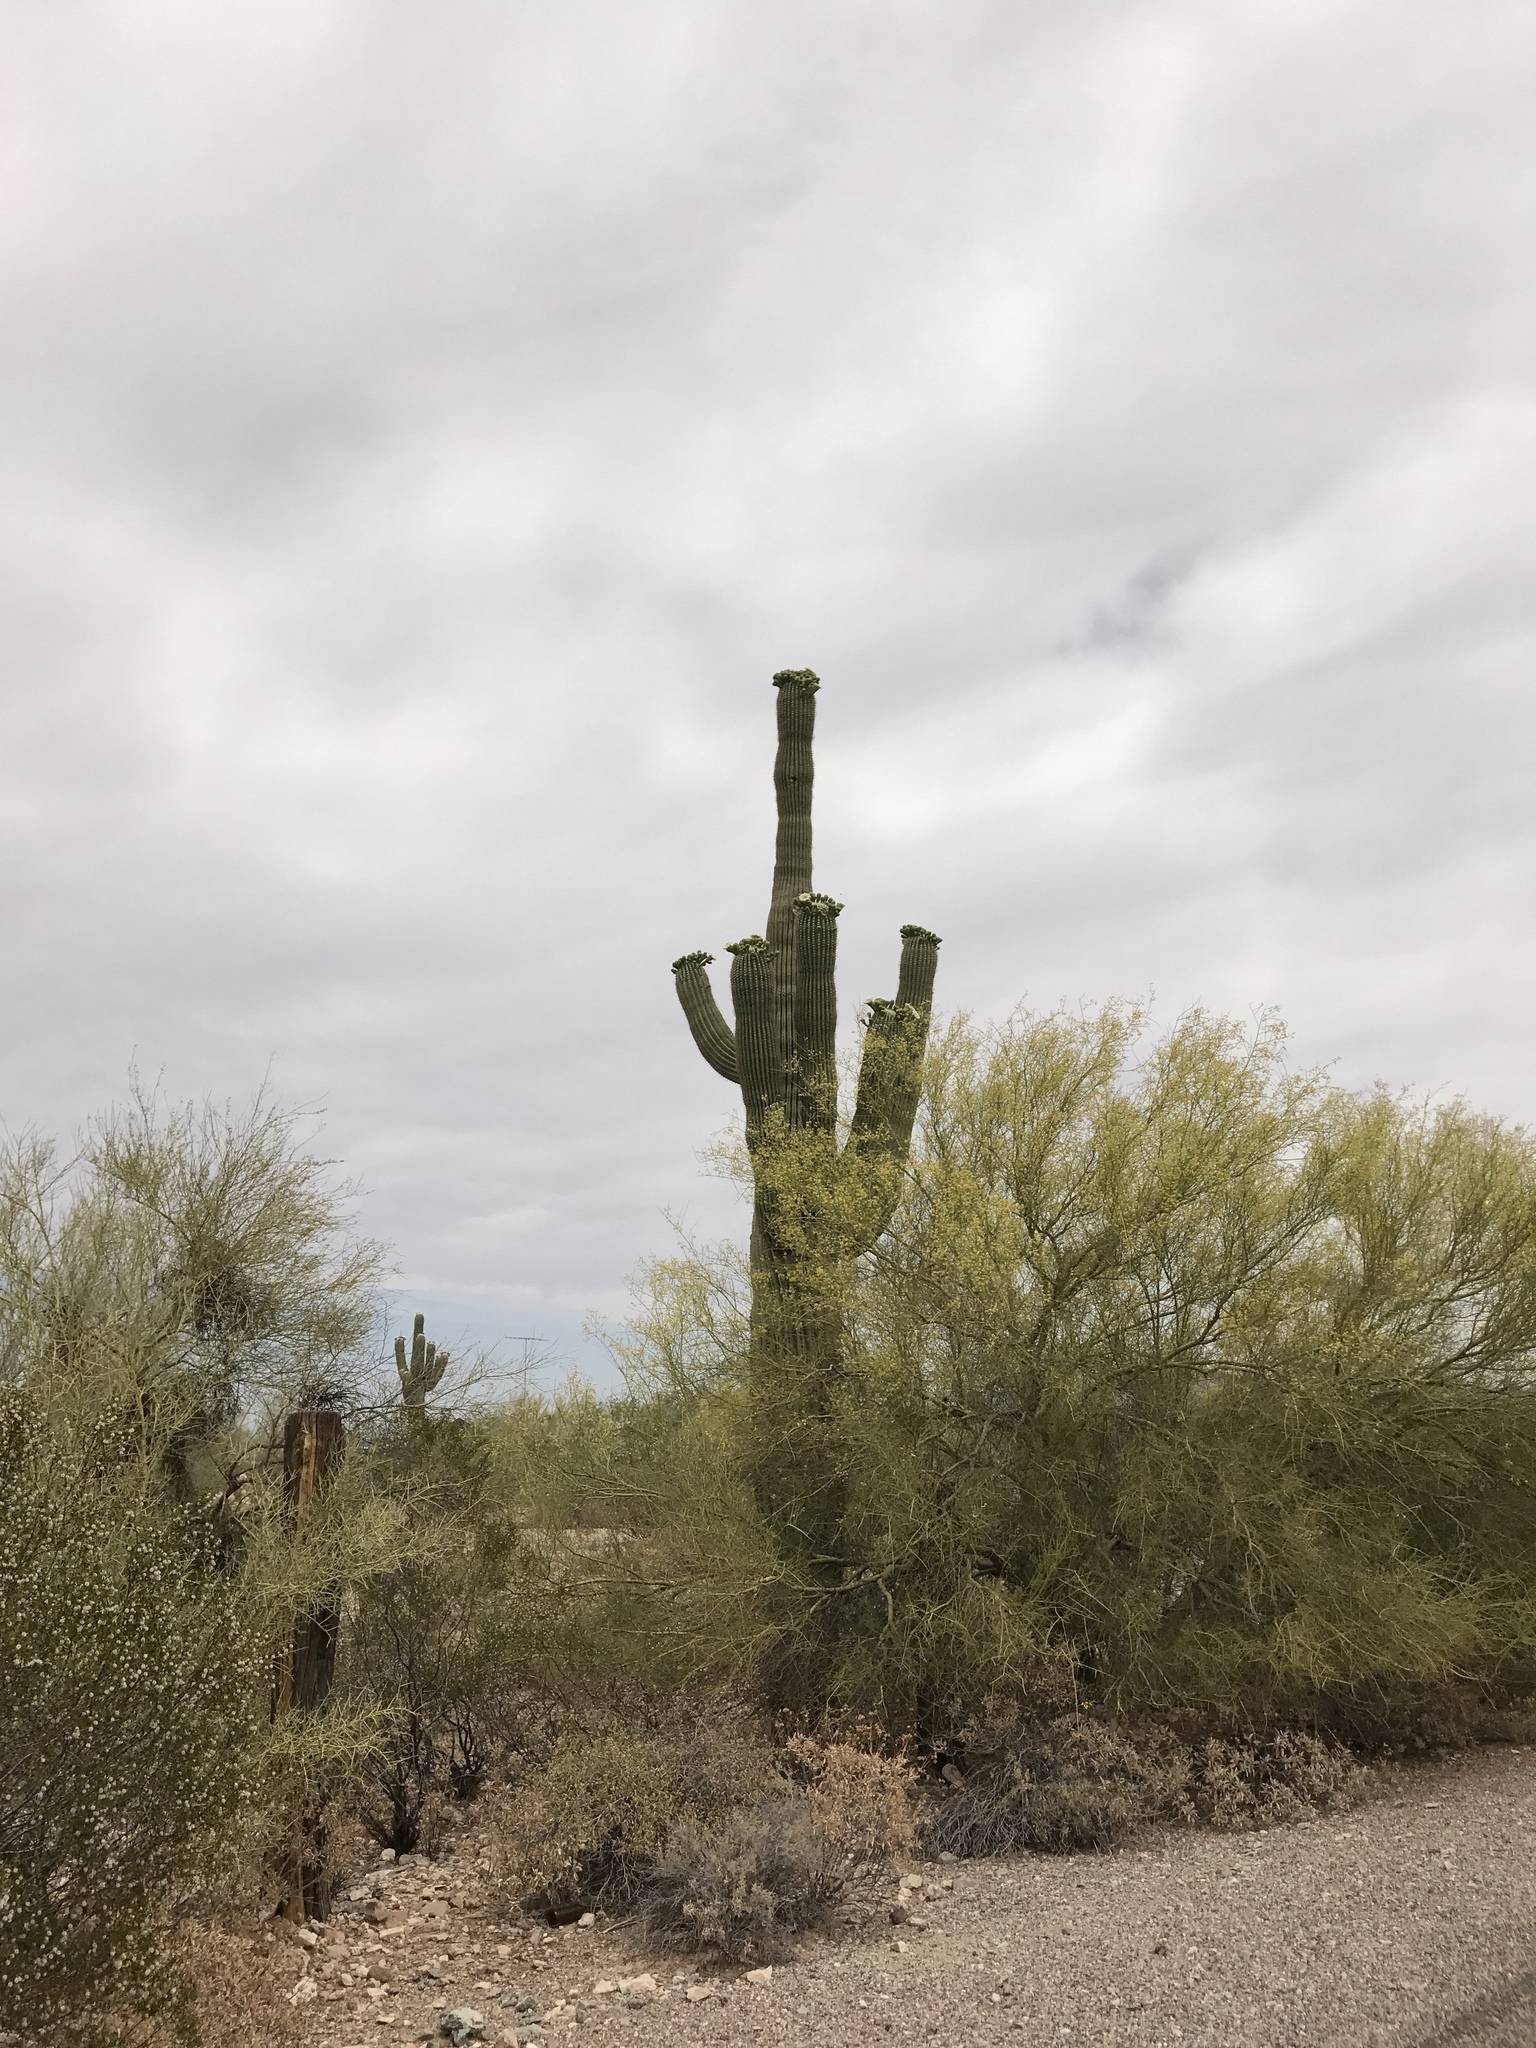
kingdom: Plantae
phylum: Tracheophyta
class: Magnoliopsida
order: Caryophyllales
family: Cactaceae
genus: Carnegiea
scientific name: Carnegiea gigantea
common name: Saguaro
